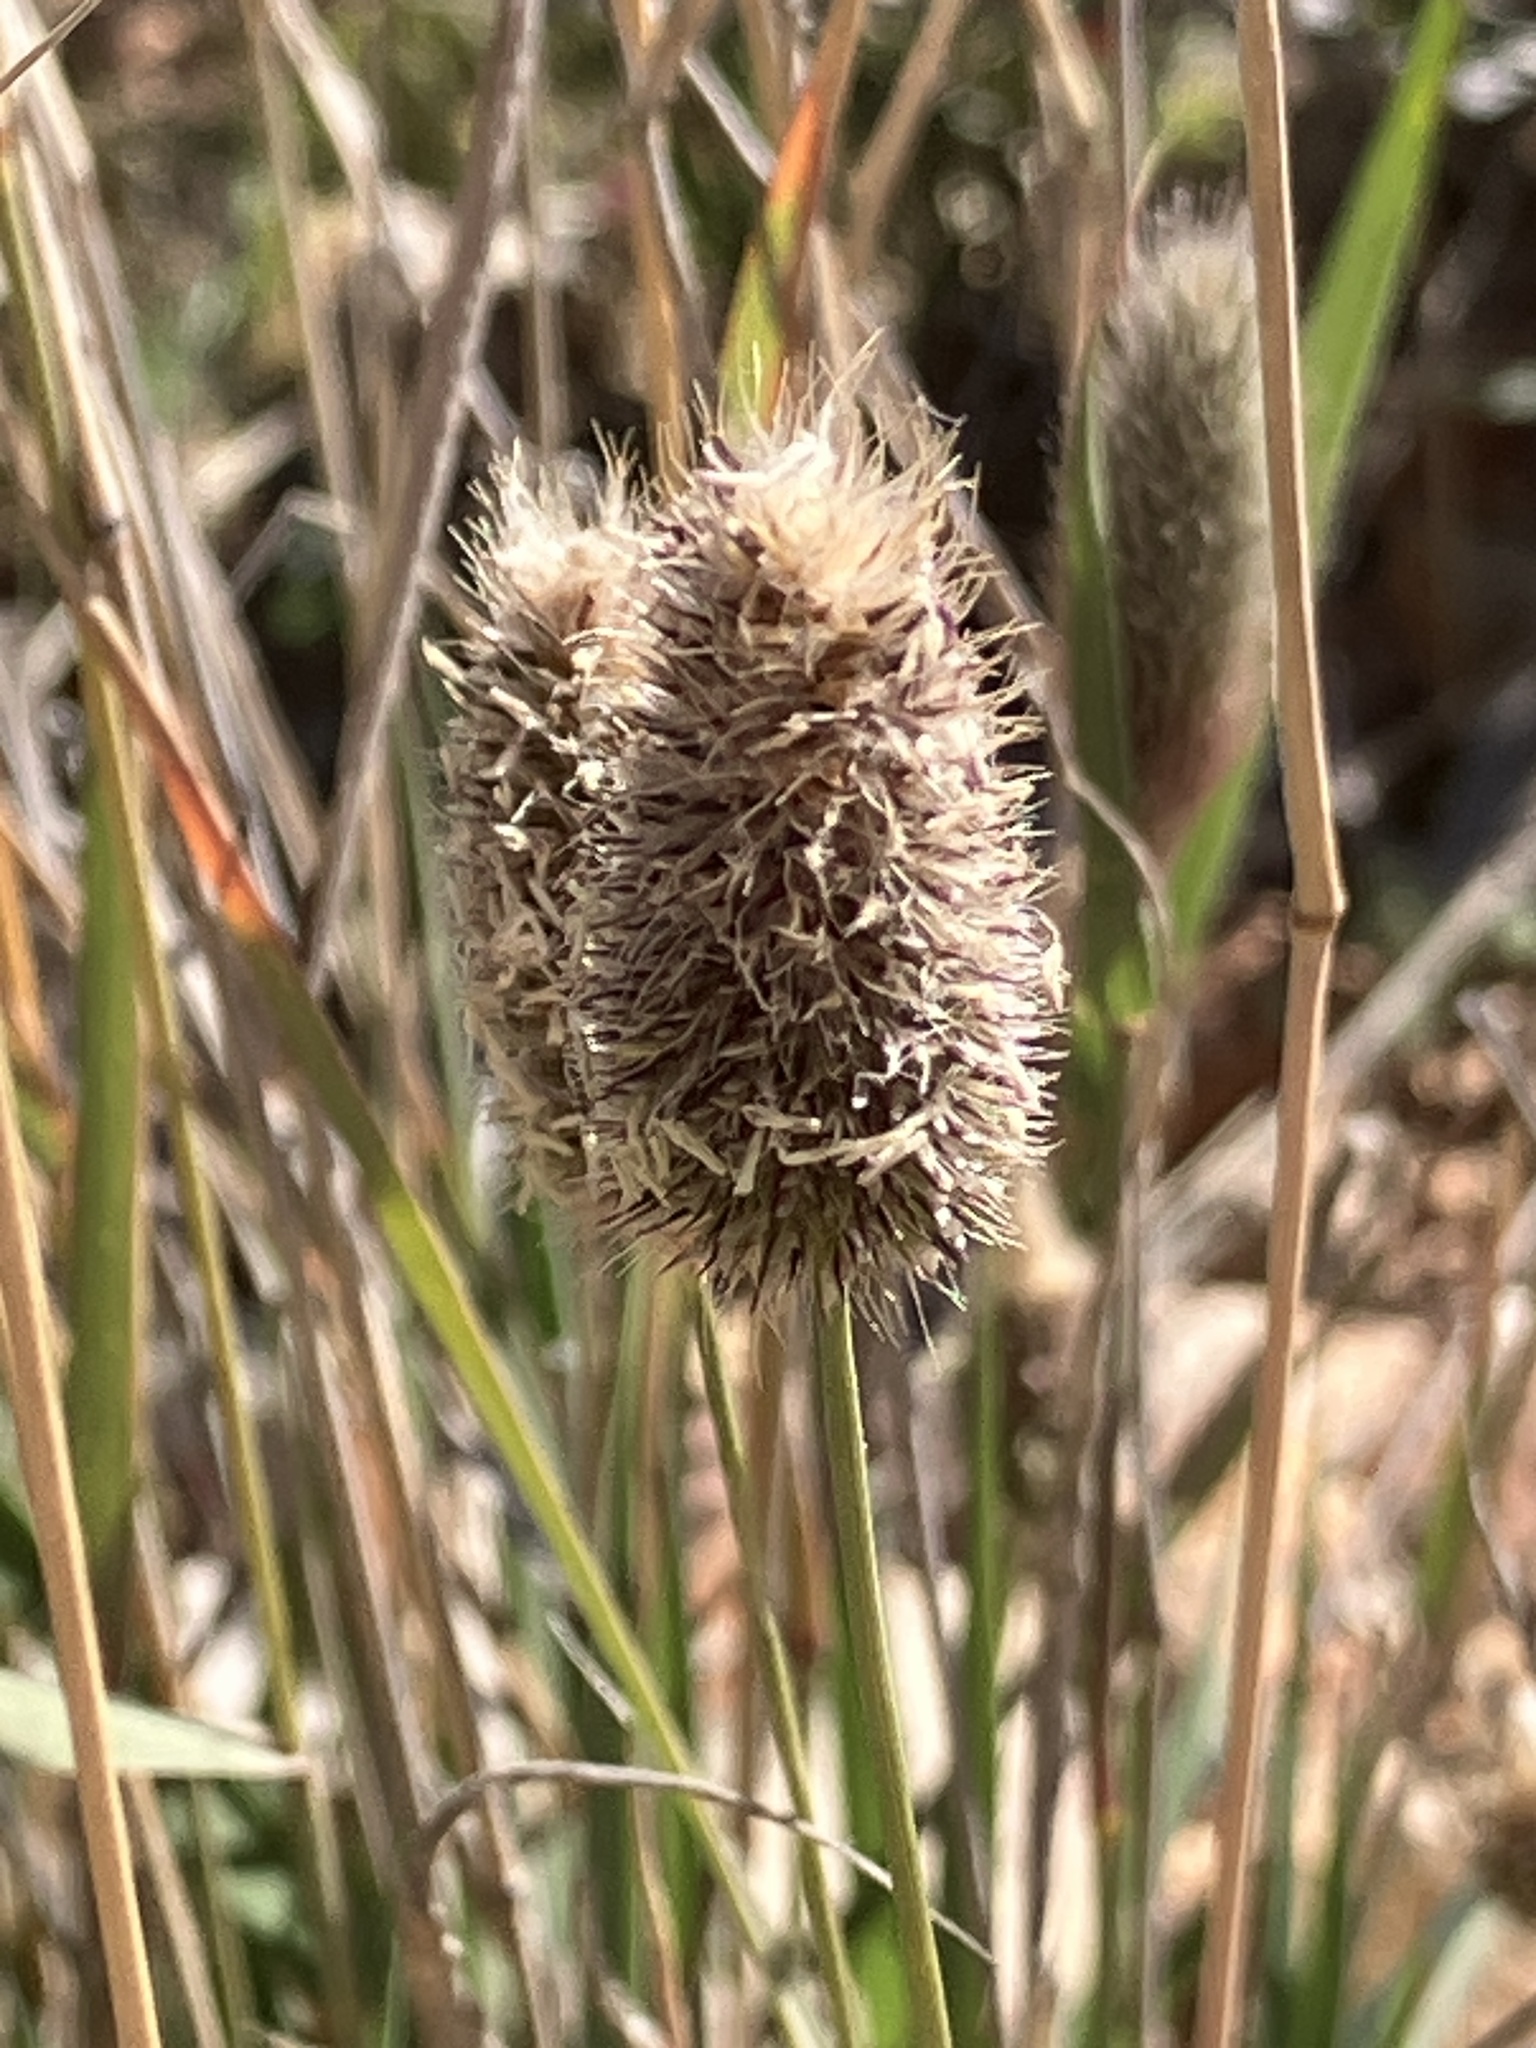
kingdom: Plantae
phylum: Tracheophyta
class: Liliopsida
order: Poales
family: Poaceae
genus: Fingerhuthia
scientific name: Fingerhuthia africana
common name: Zulu fescue
